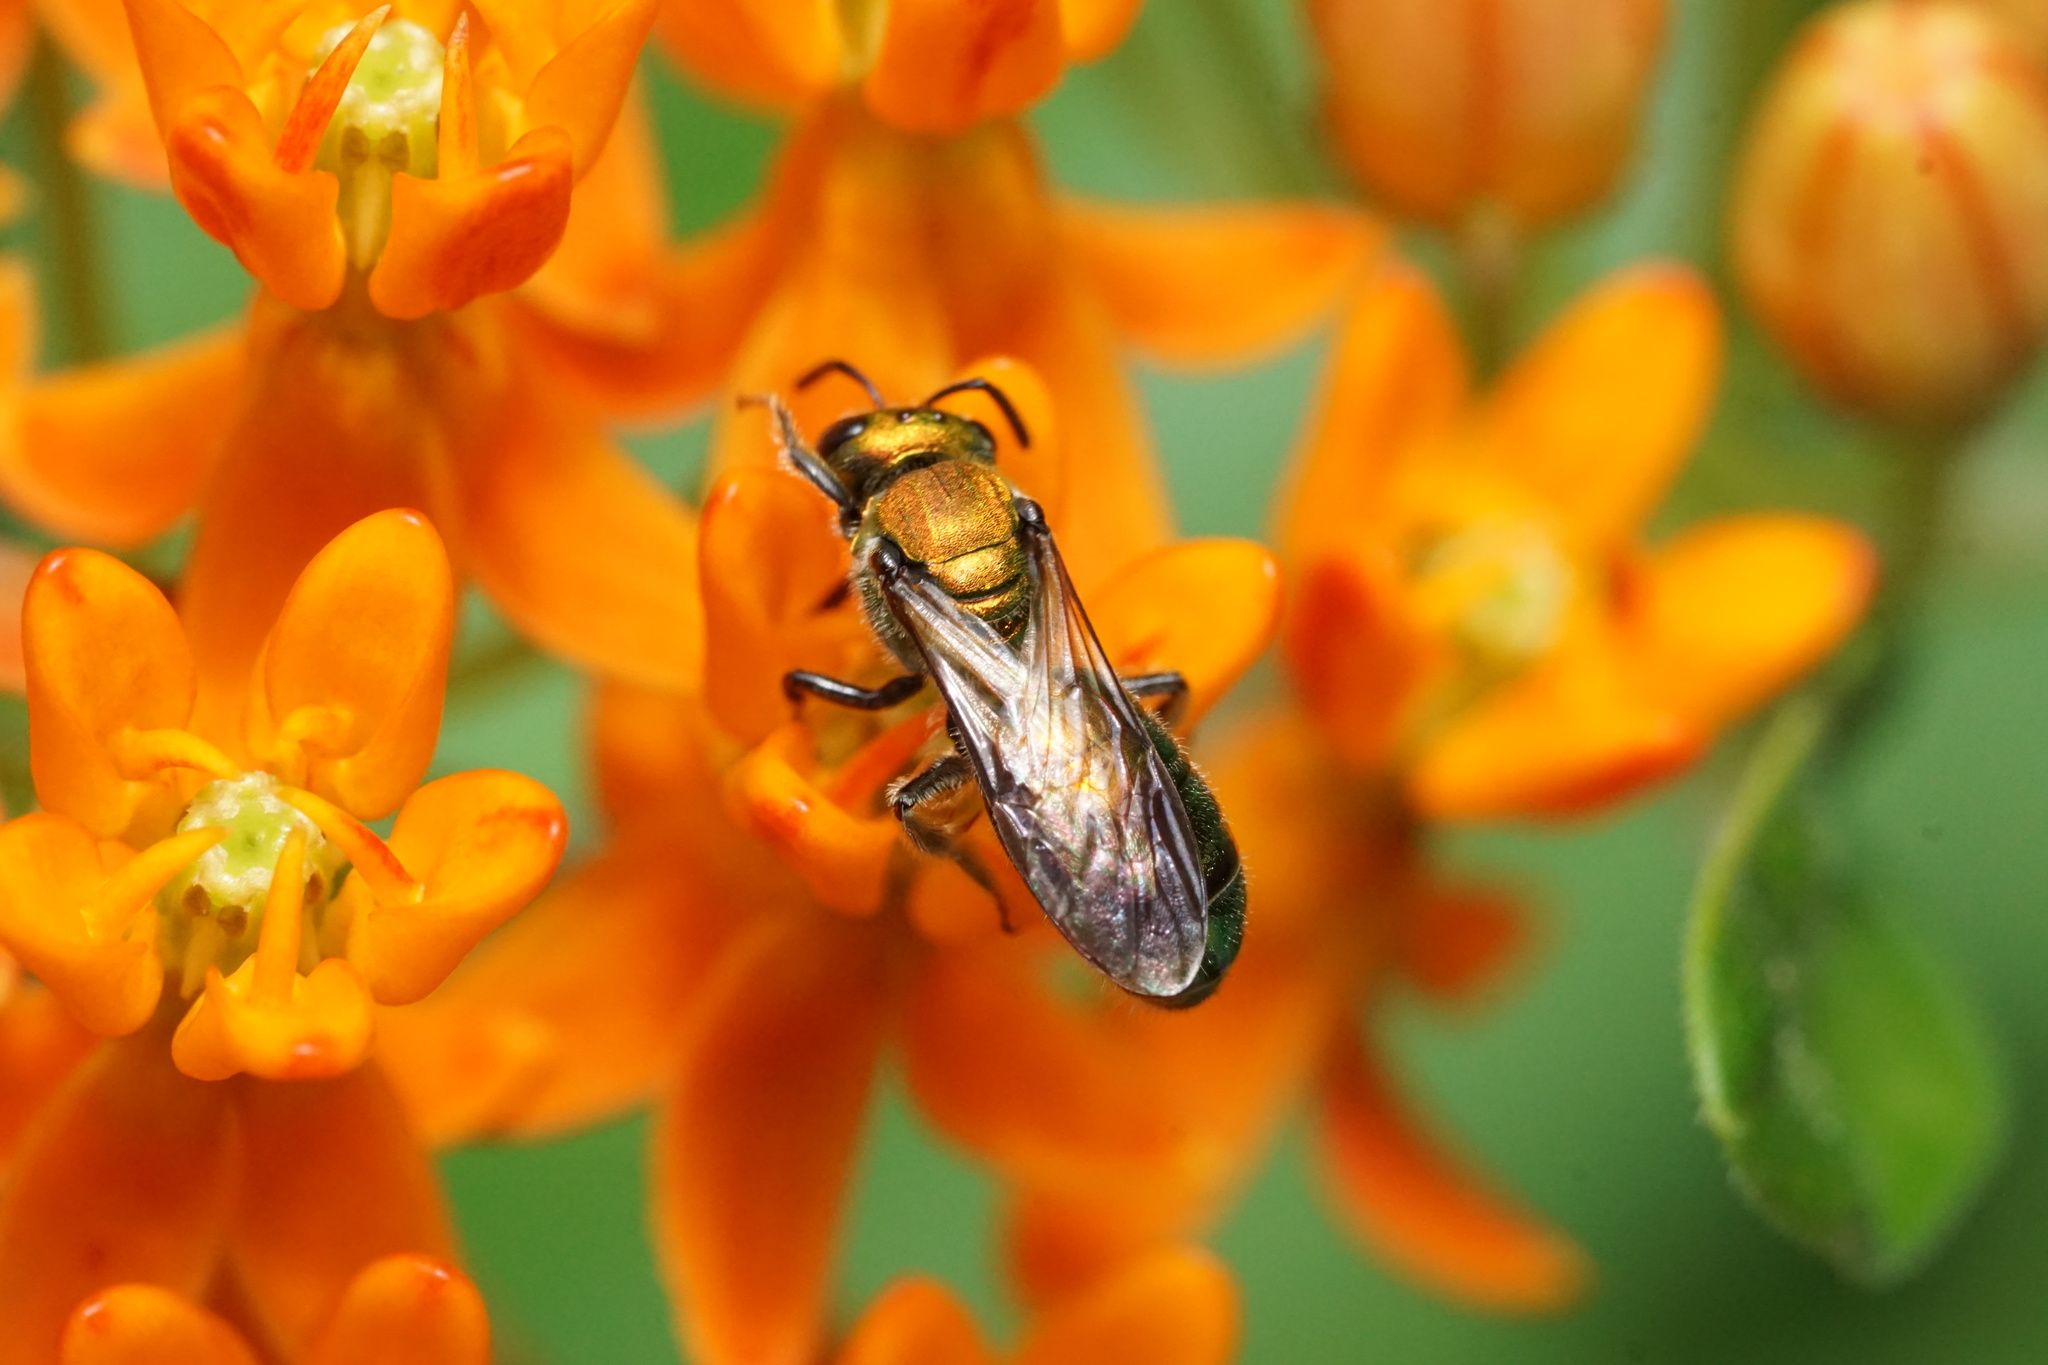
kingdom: Animalia
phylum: Arthropoda
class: Insecta
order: Hymenoptera
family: Halictidae
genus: Augochlora
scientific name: Augochlora pura
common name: Pure green sweat bee
